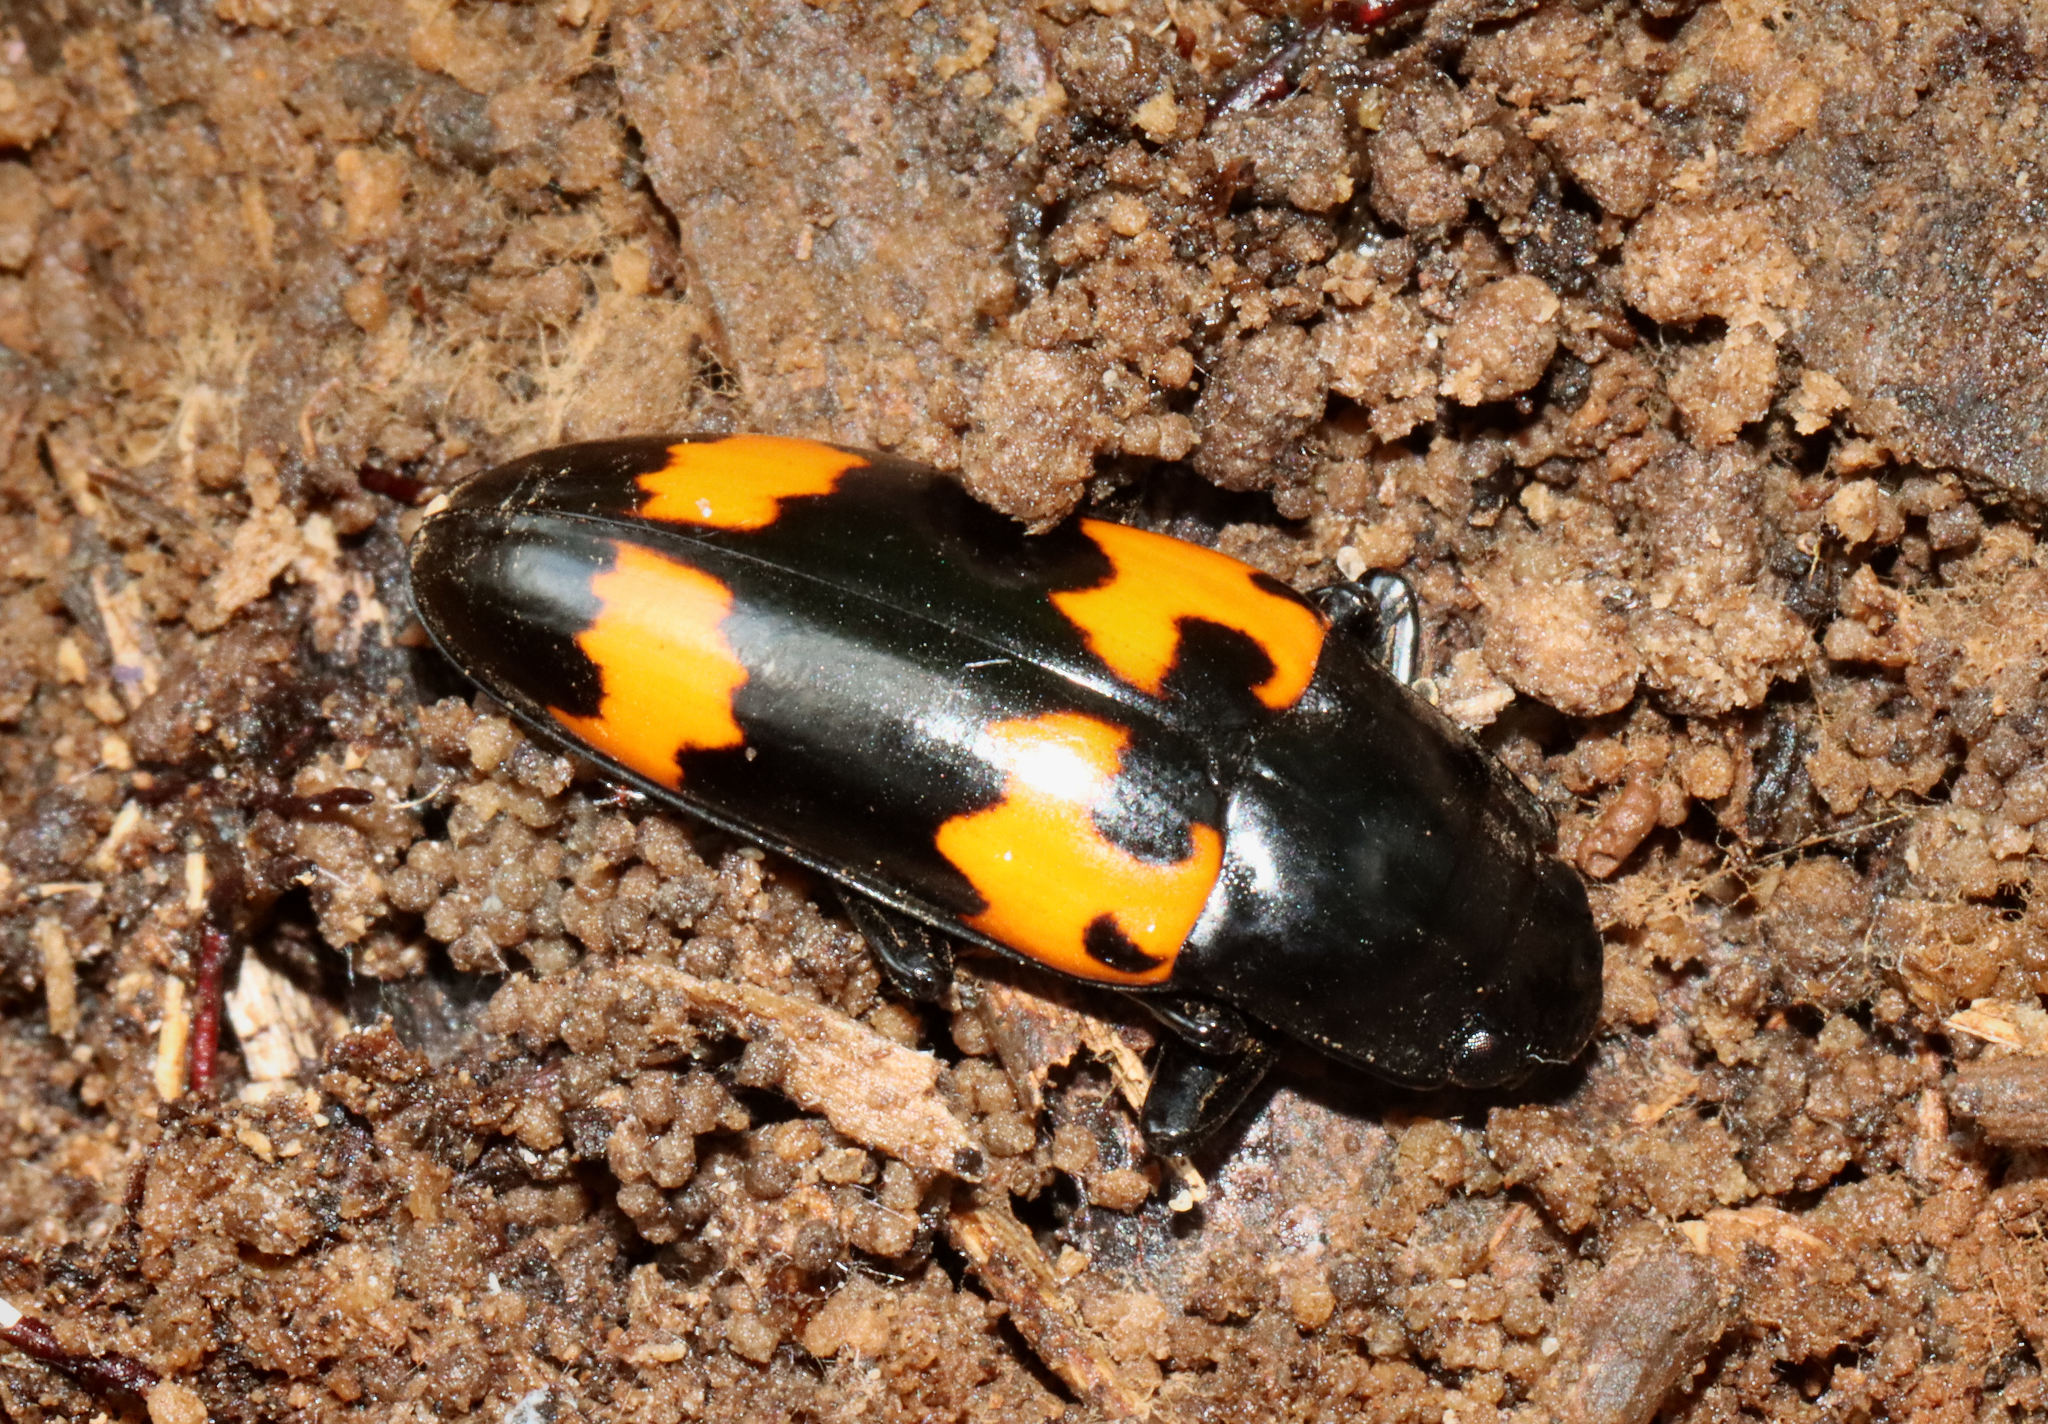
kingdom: Animalia
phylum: Arthropoda
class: Insecta
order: Coleoptera
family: Erotylidae
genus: Megalodacne
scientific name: Megalodacne heros
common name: Pleasing fungus beetle
